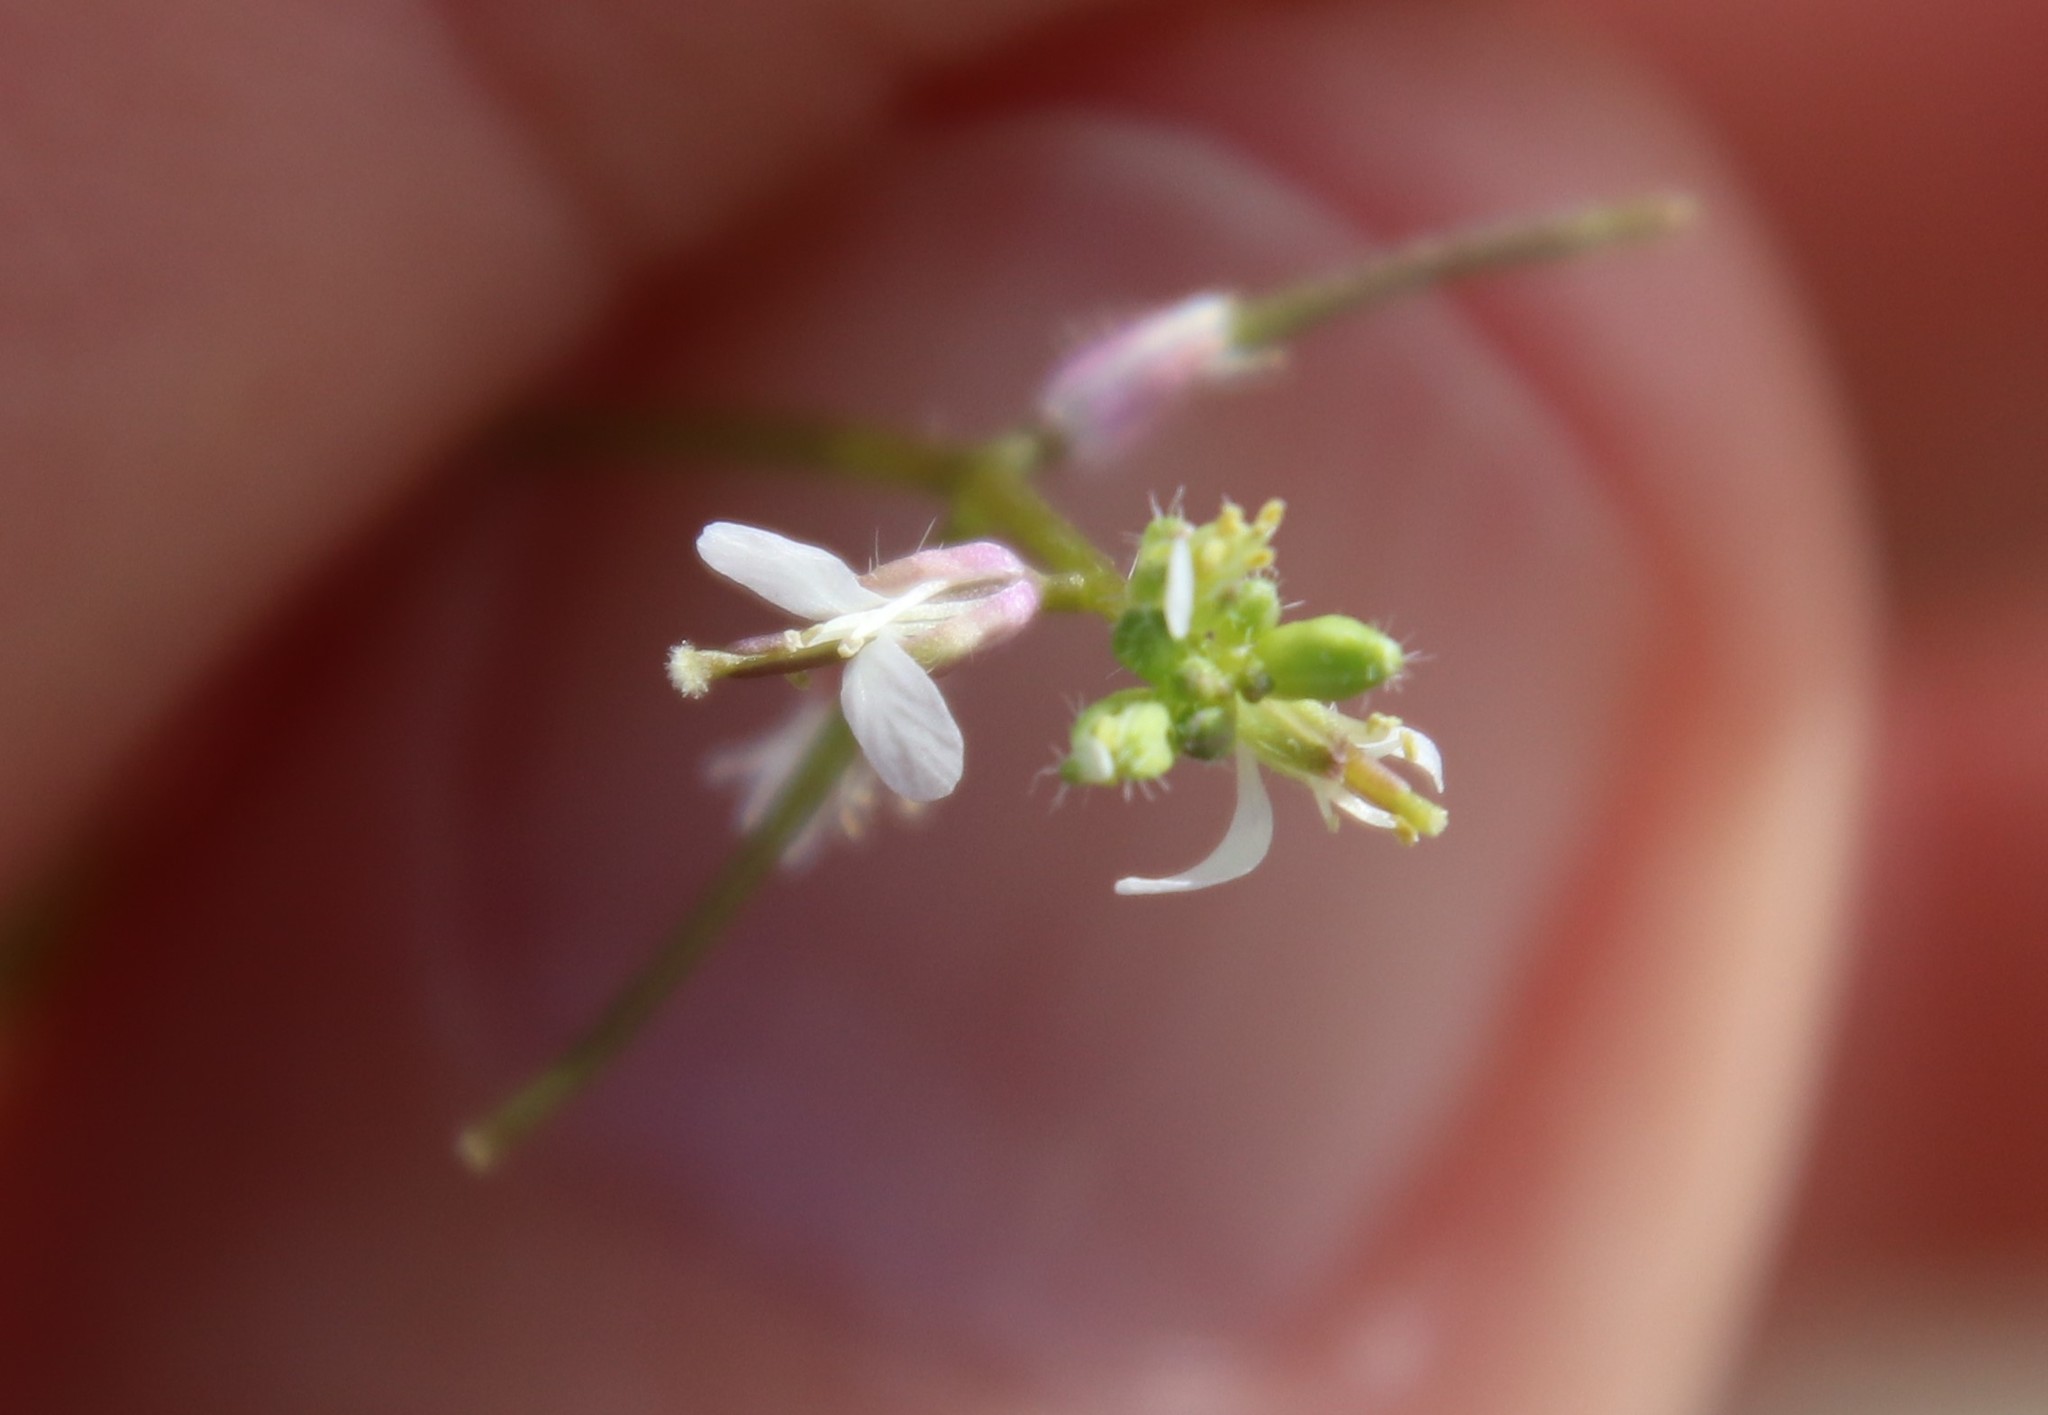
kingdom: Plantae
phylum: Tracheophyta
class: Magnoliopsida
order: Brassicales
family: Brassicaceae
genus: Streptanthus
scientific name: Streptanthus lasiophyllus
